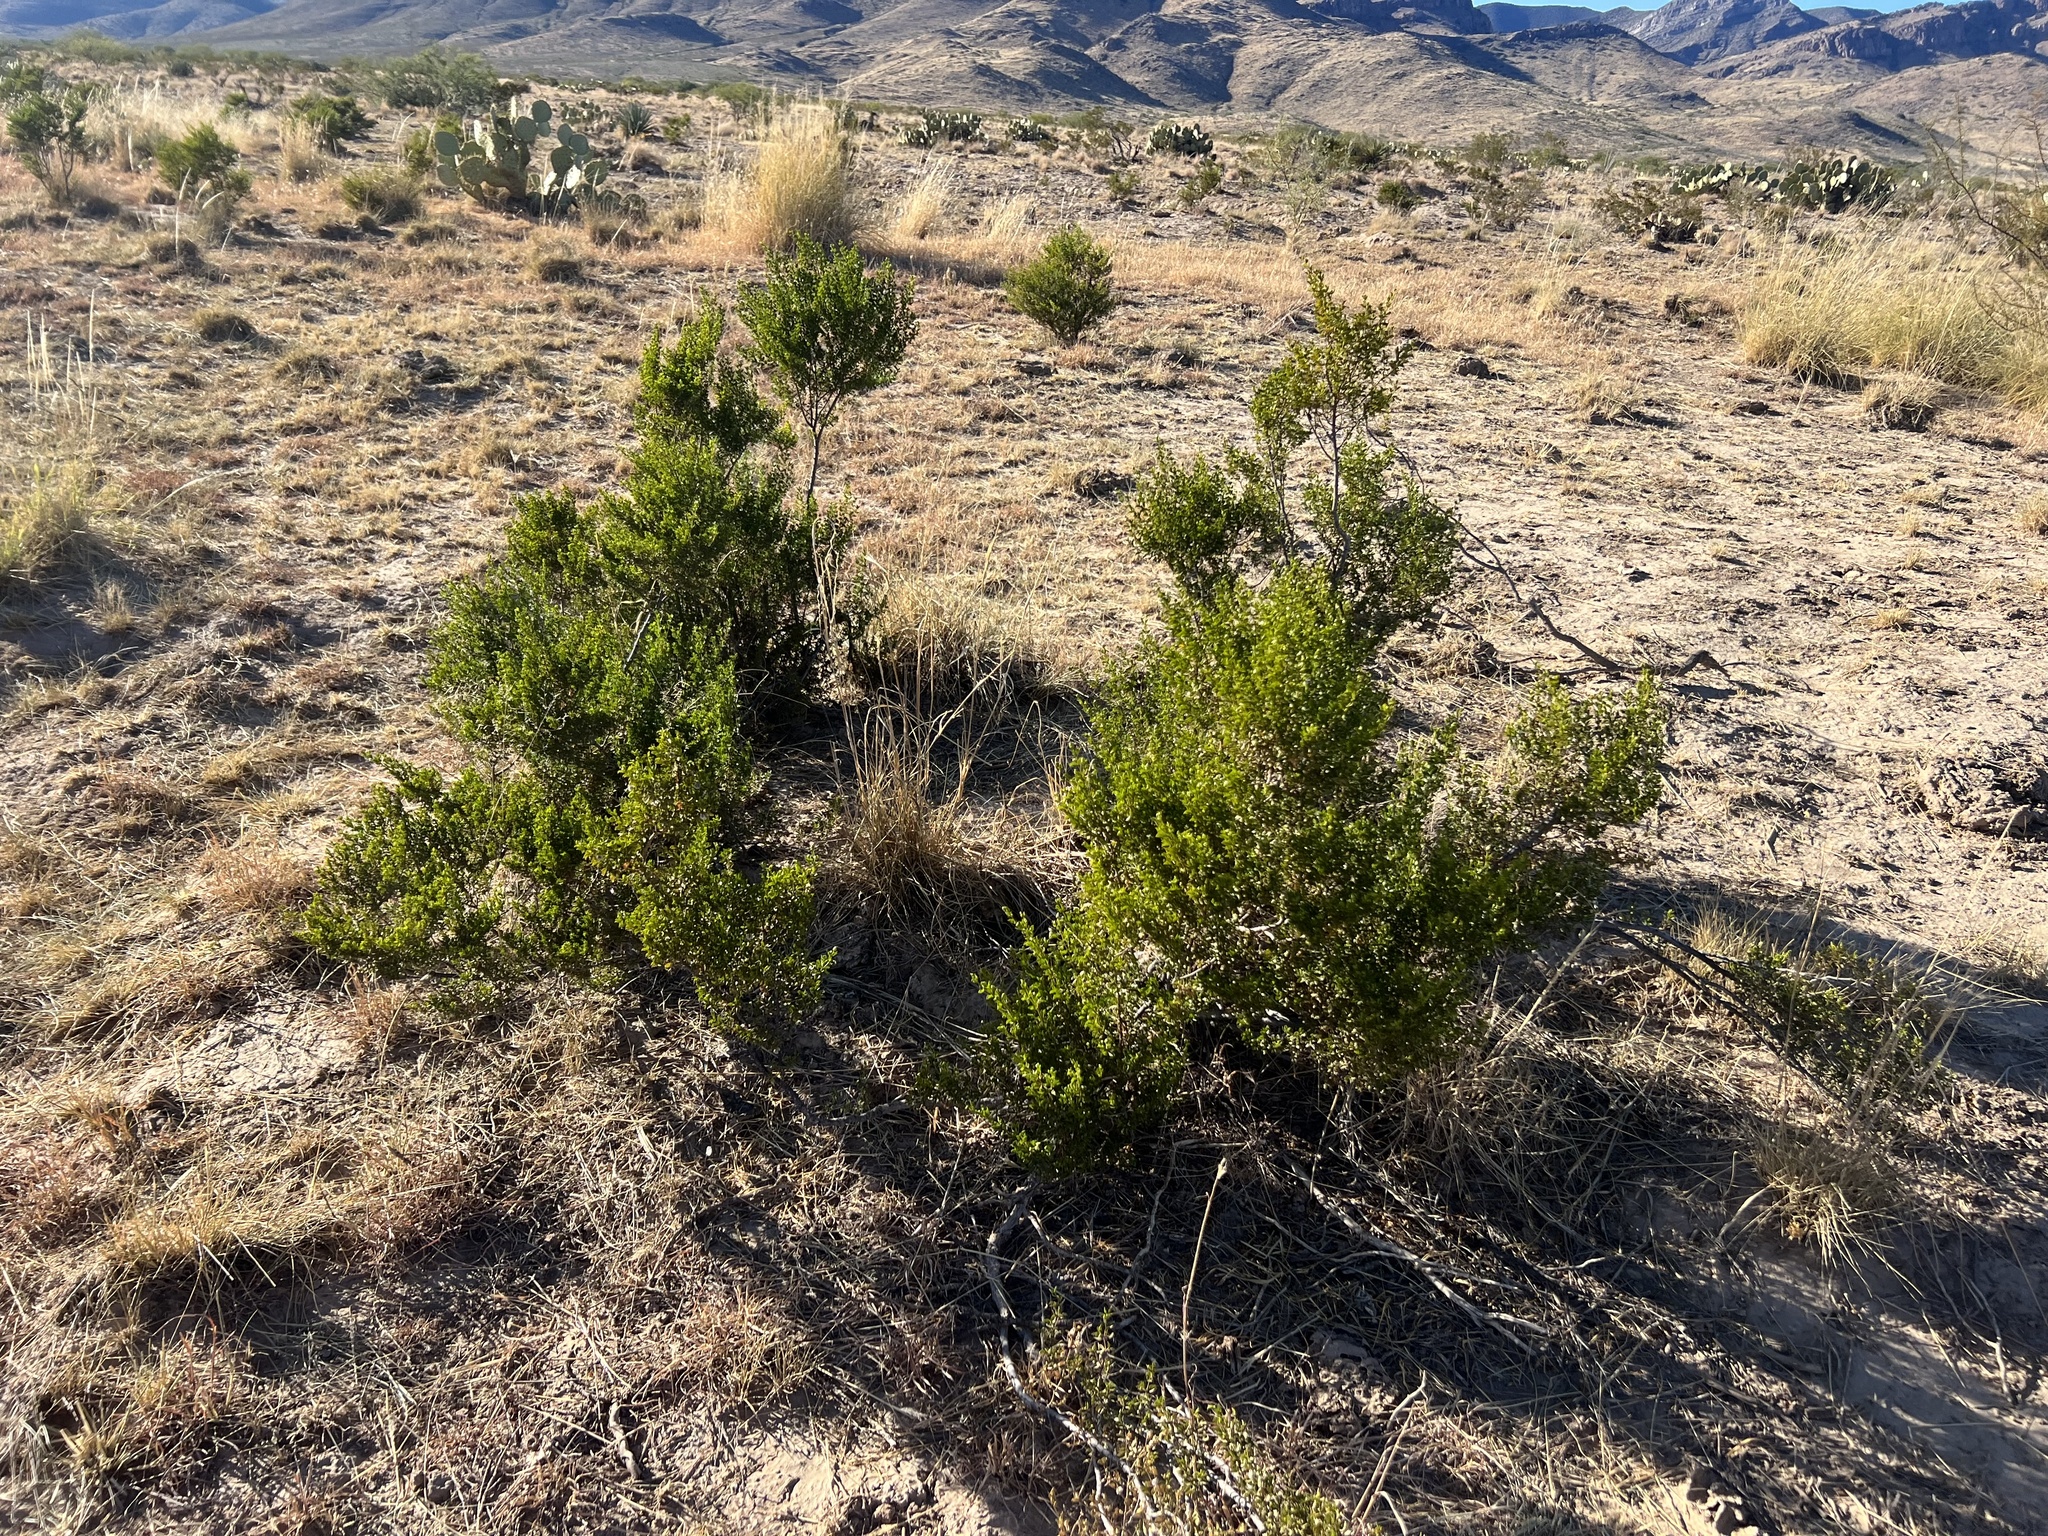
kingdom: Plantae
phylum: Tracheophyta
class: Magnoliopsida
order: Zygophyllales
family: Zygophyllaceae
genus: Larrea
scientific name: Larrea tridentata
